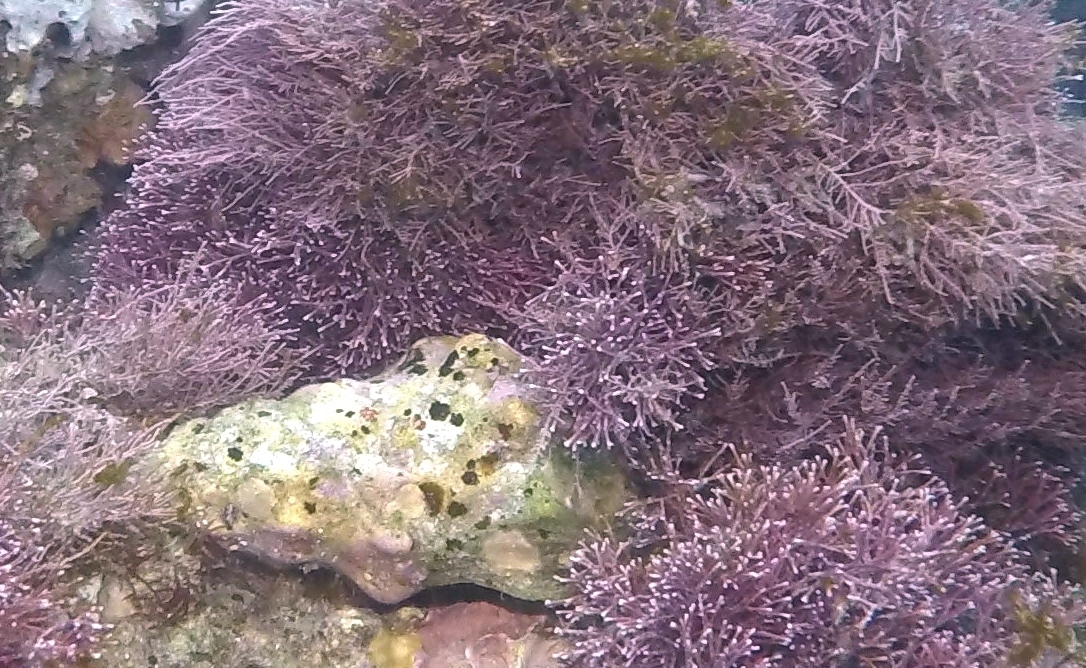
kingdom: Animalia
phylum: Mollusca
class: Gastropoda
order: Neogastropoda
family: Austrosiphonidae
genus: Kelletia
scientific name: Kelletia kelletii
